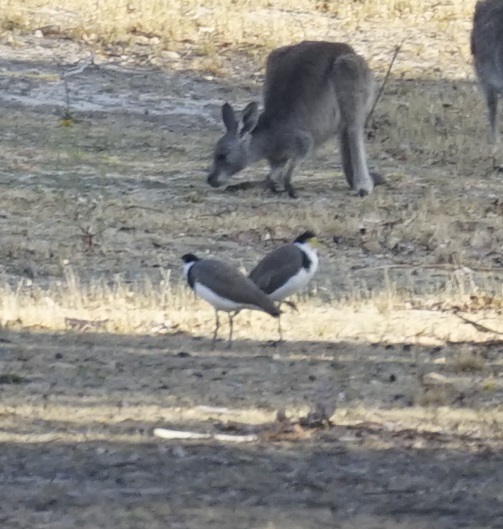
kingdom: Animalia
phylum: Chordata
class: Aves
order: Charadriiformes
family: Charadriidae
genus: Vanellus
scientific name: Vanellus miles
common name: Masked lapwing
